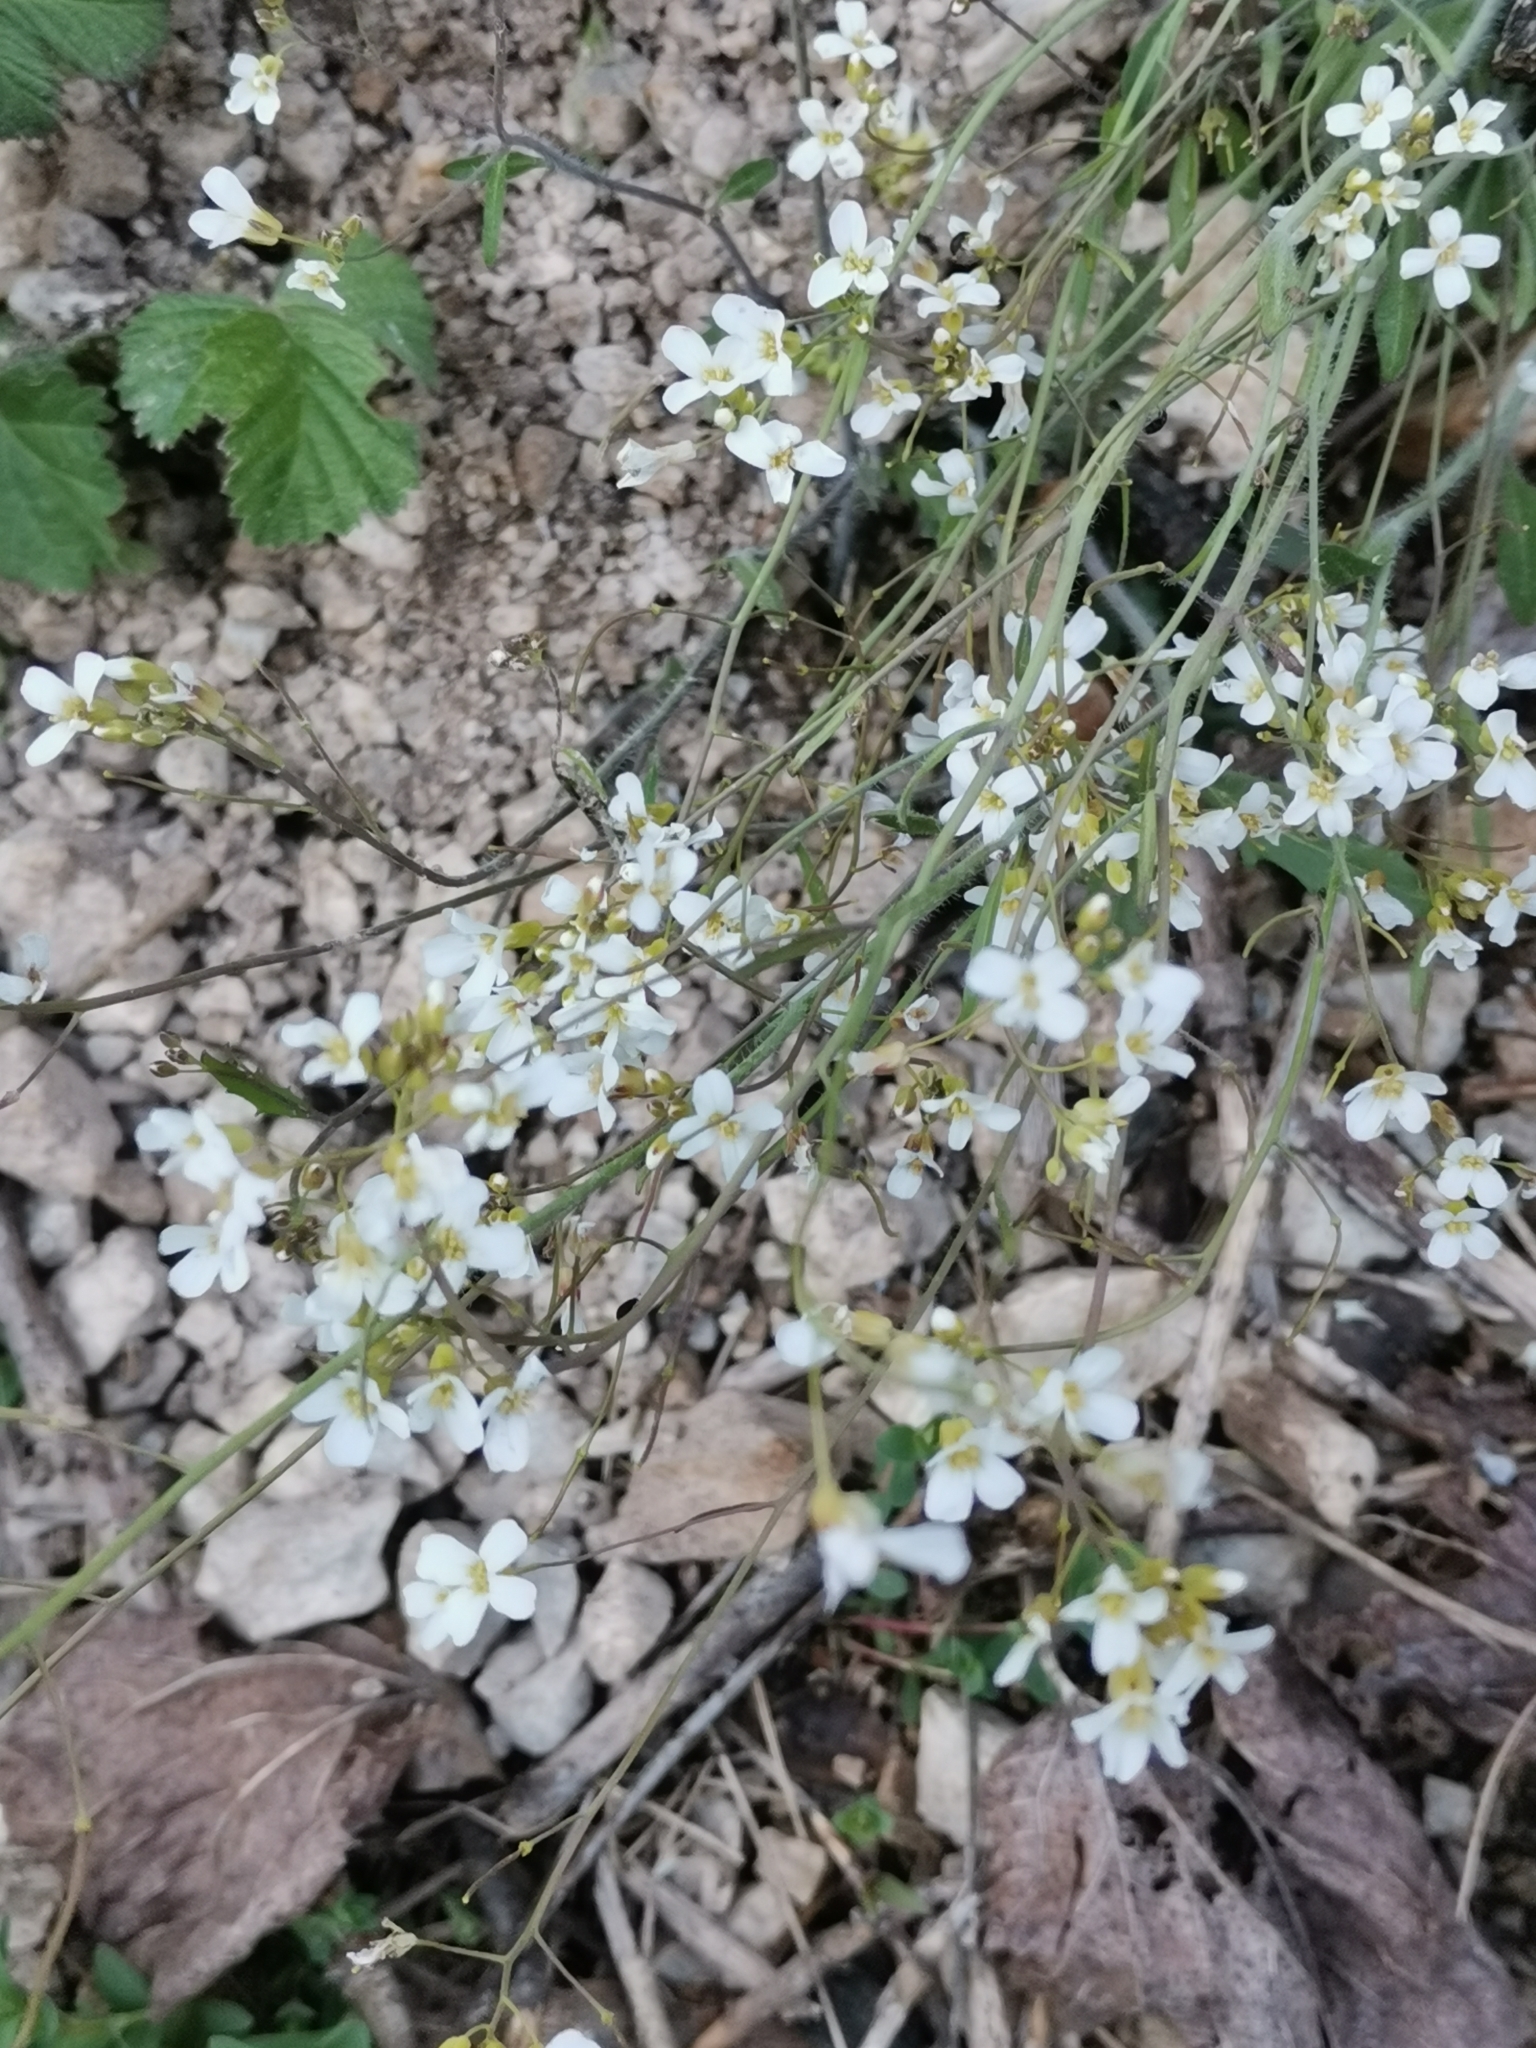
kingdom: Plantae
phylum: Tracheophyta
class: Magnoliopsida
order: Brassicales
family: Brassicaceae
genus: Arabidopsis
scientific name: Arabidopsis arenosa
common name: Sand rock-cress
